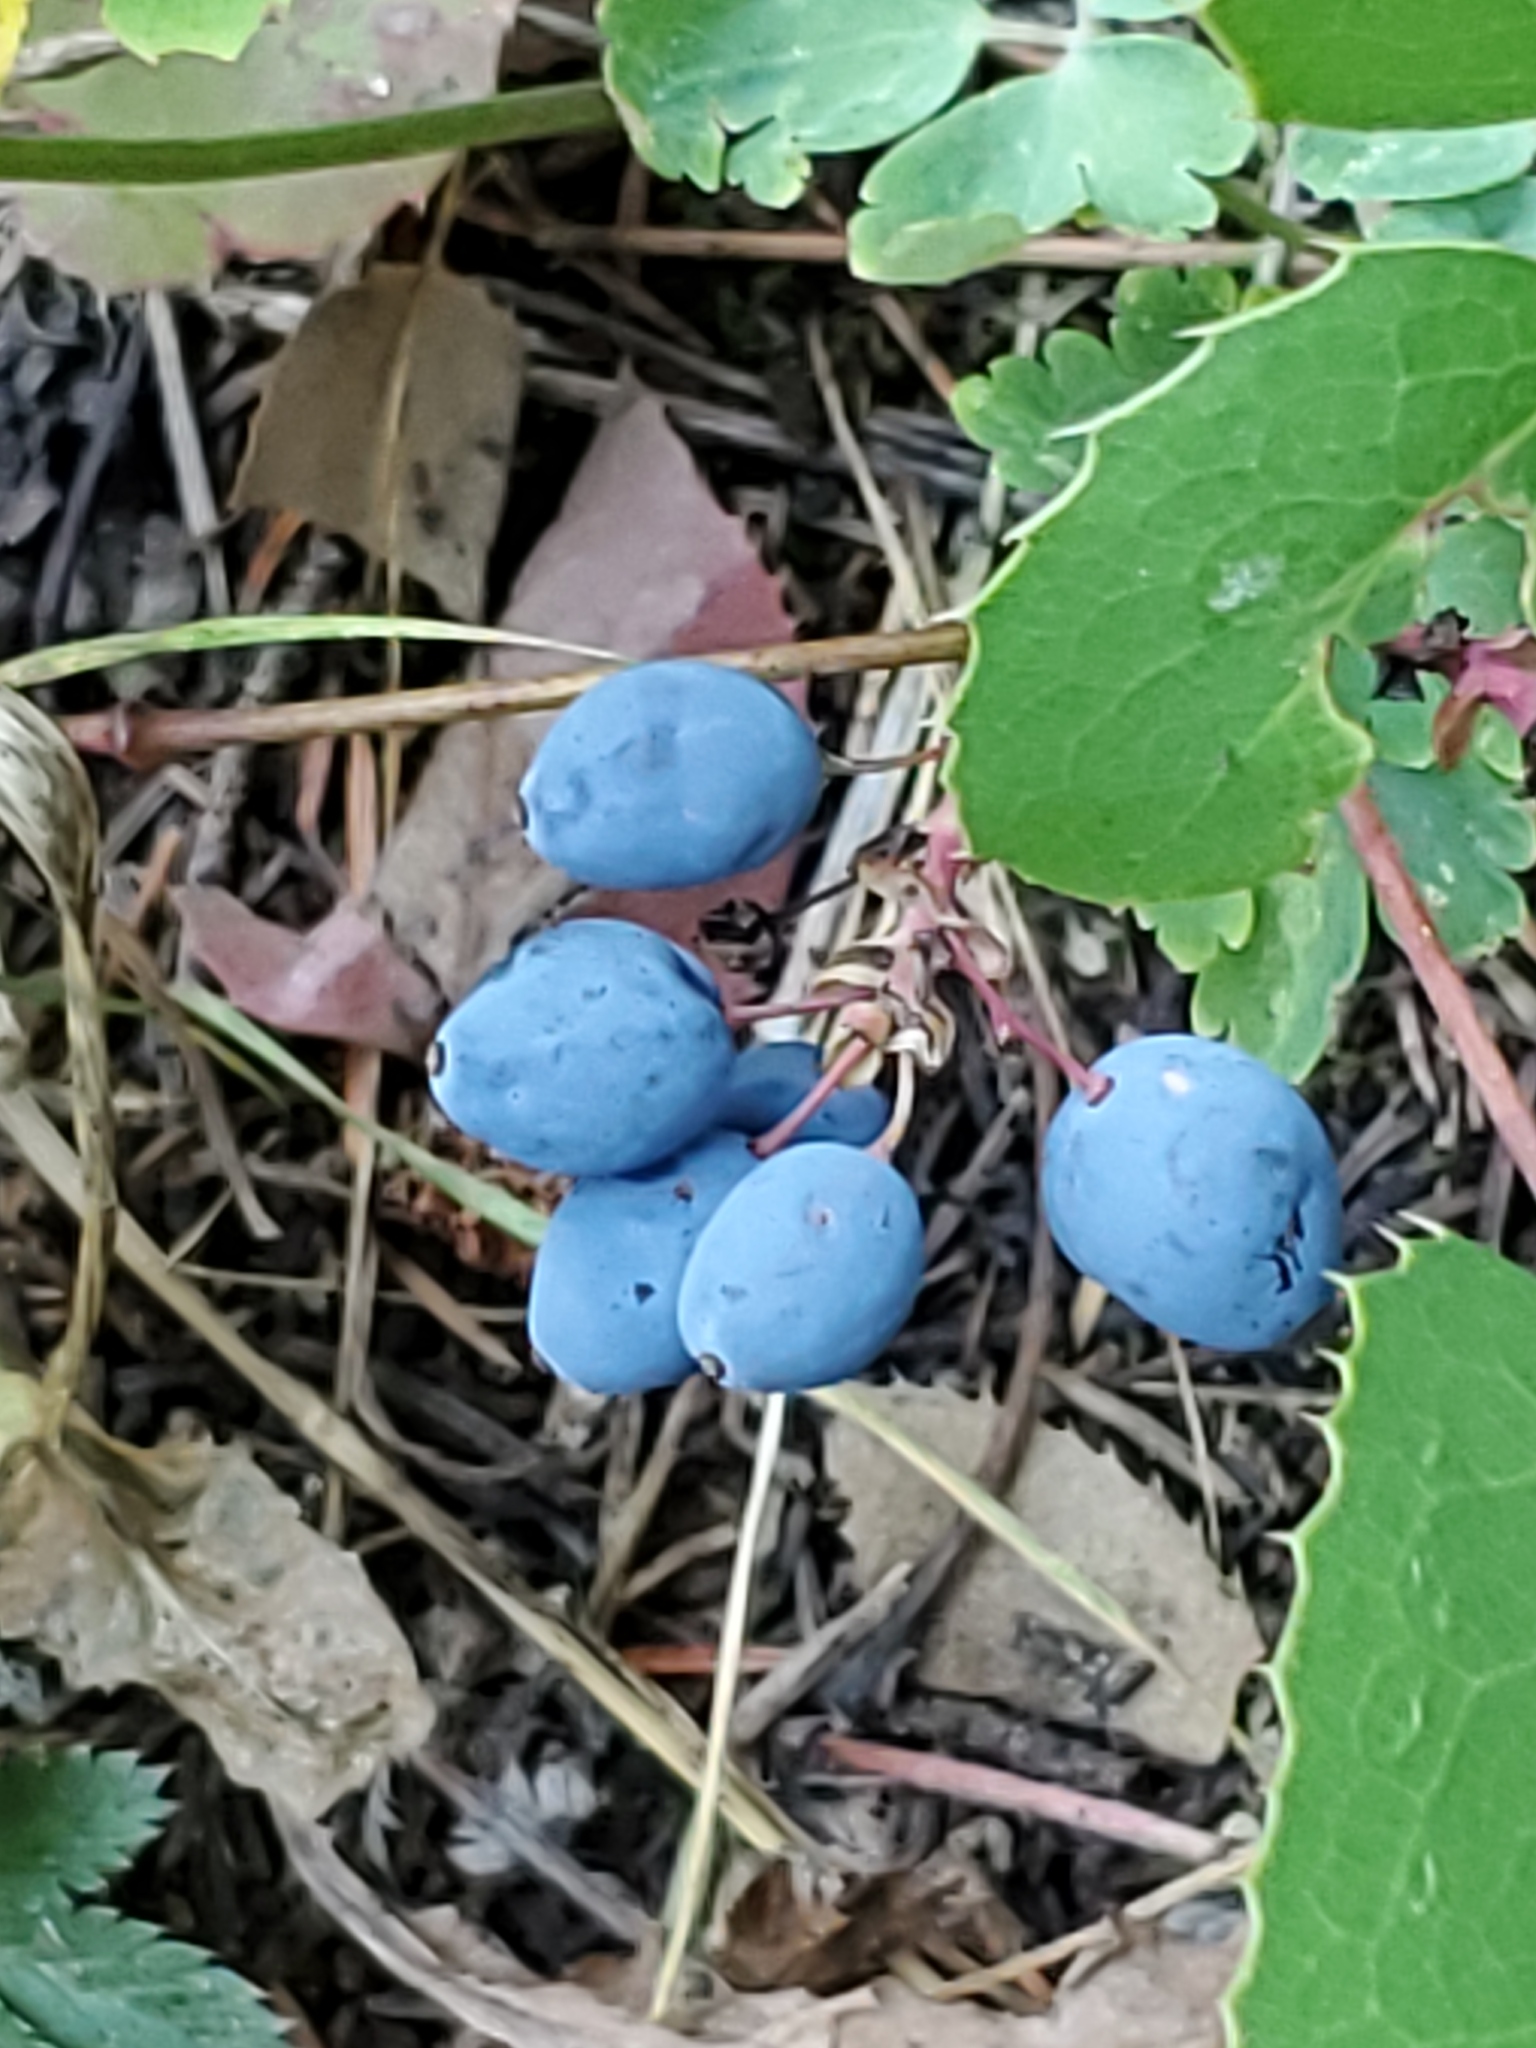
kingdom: Plantae
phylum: Tracheophyta
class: Magnoliopsida
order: Ranunculales
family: Berberidaceae
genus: Mahonia
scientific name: Mahonia repens
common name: Creeping oregon-grape
